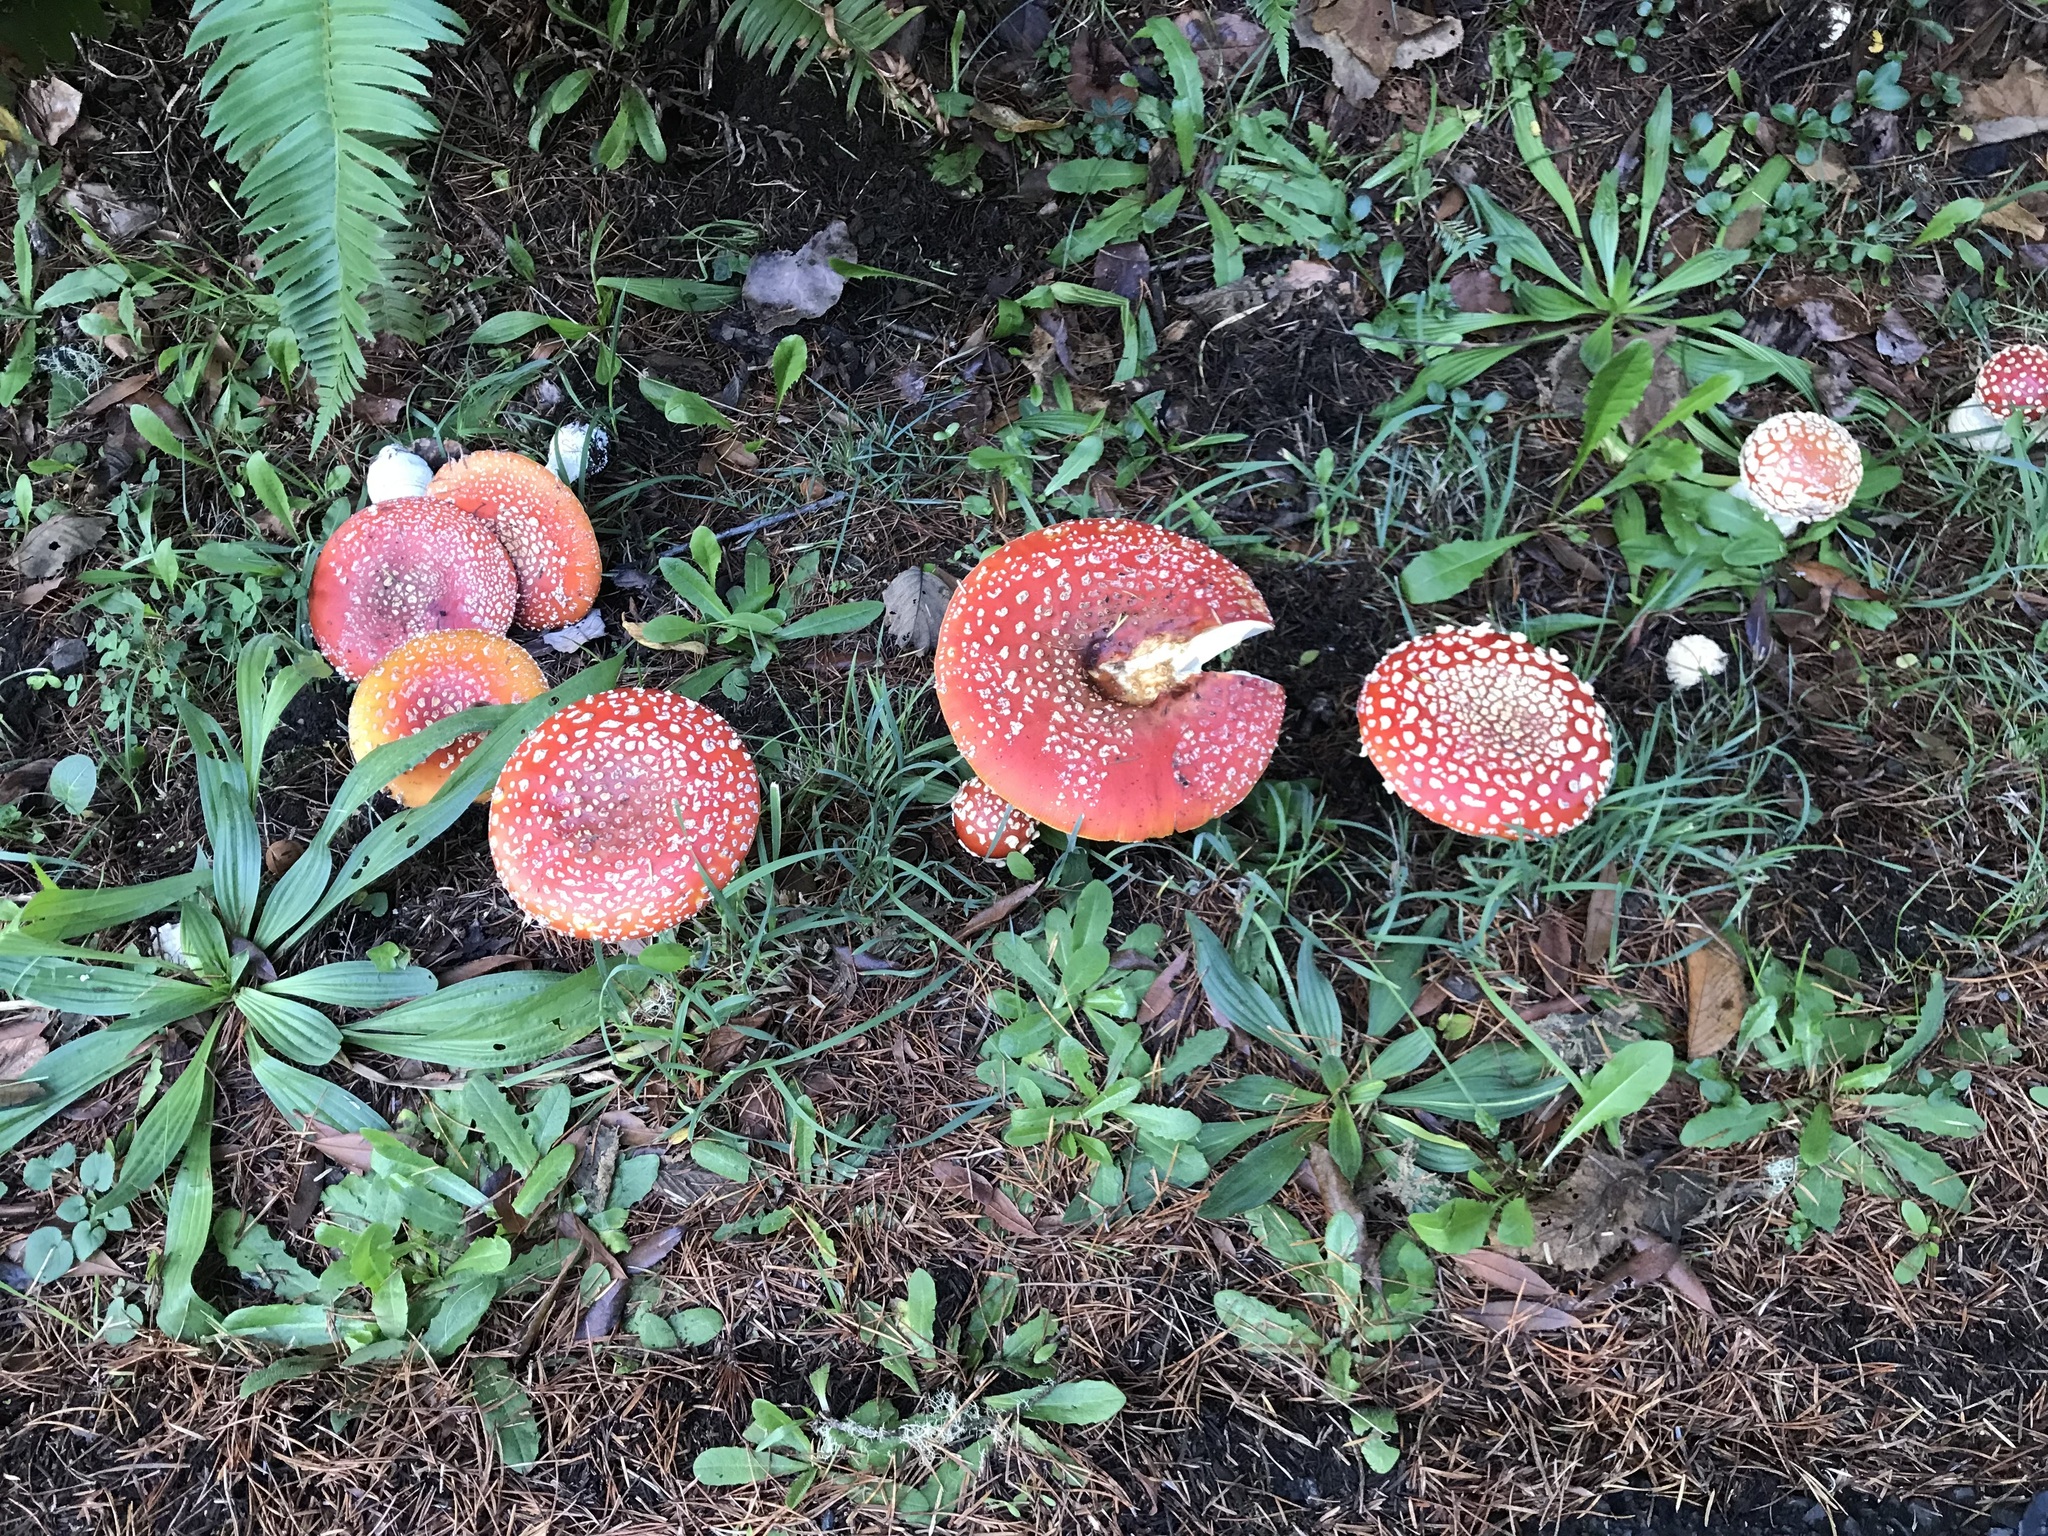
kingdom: Fungi
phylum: Basidiomycota
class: Agaricomycetes
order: Agaricales
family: Amanitaceae
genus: Amanita
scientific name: Amanita muscaria
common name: Fly agaric
